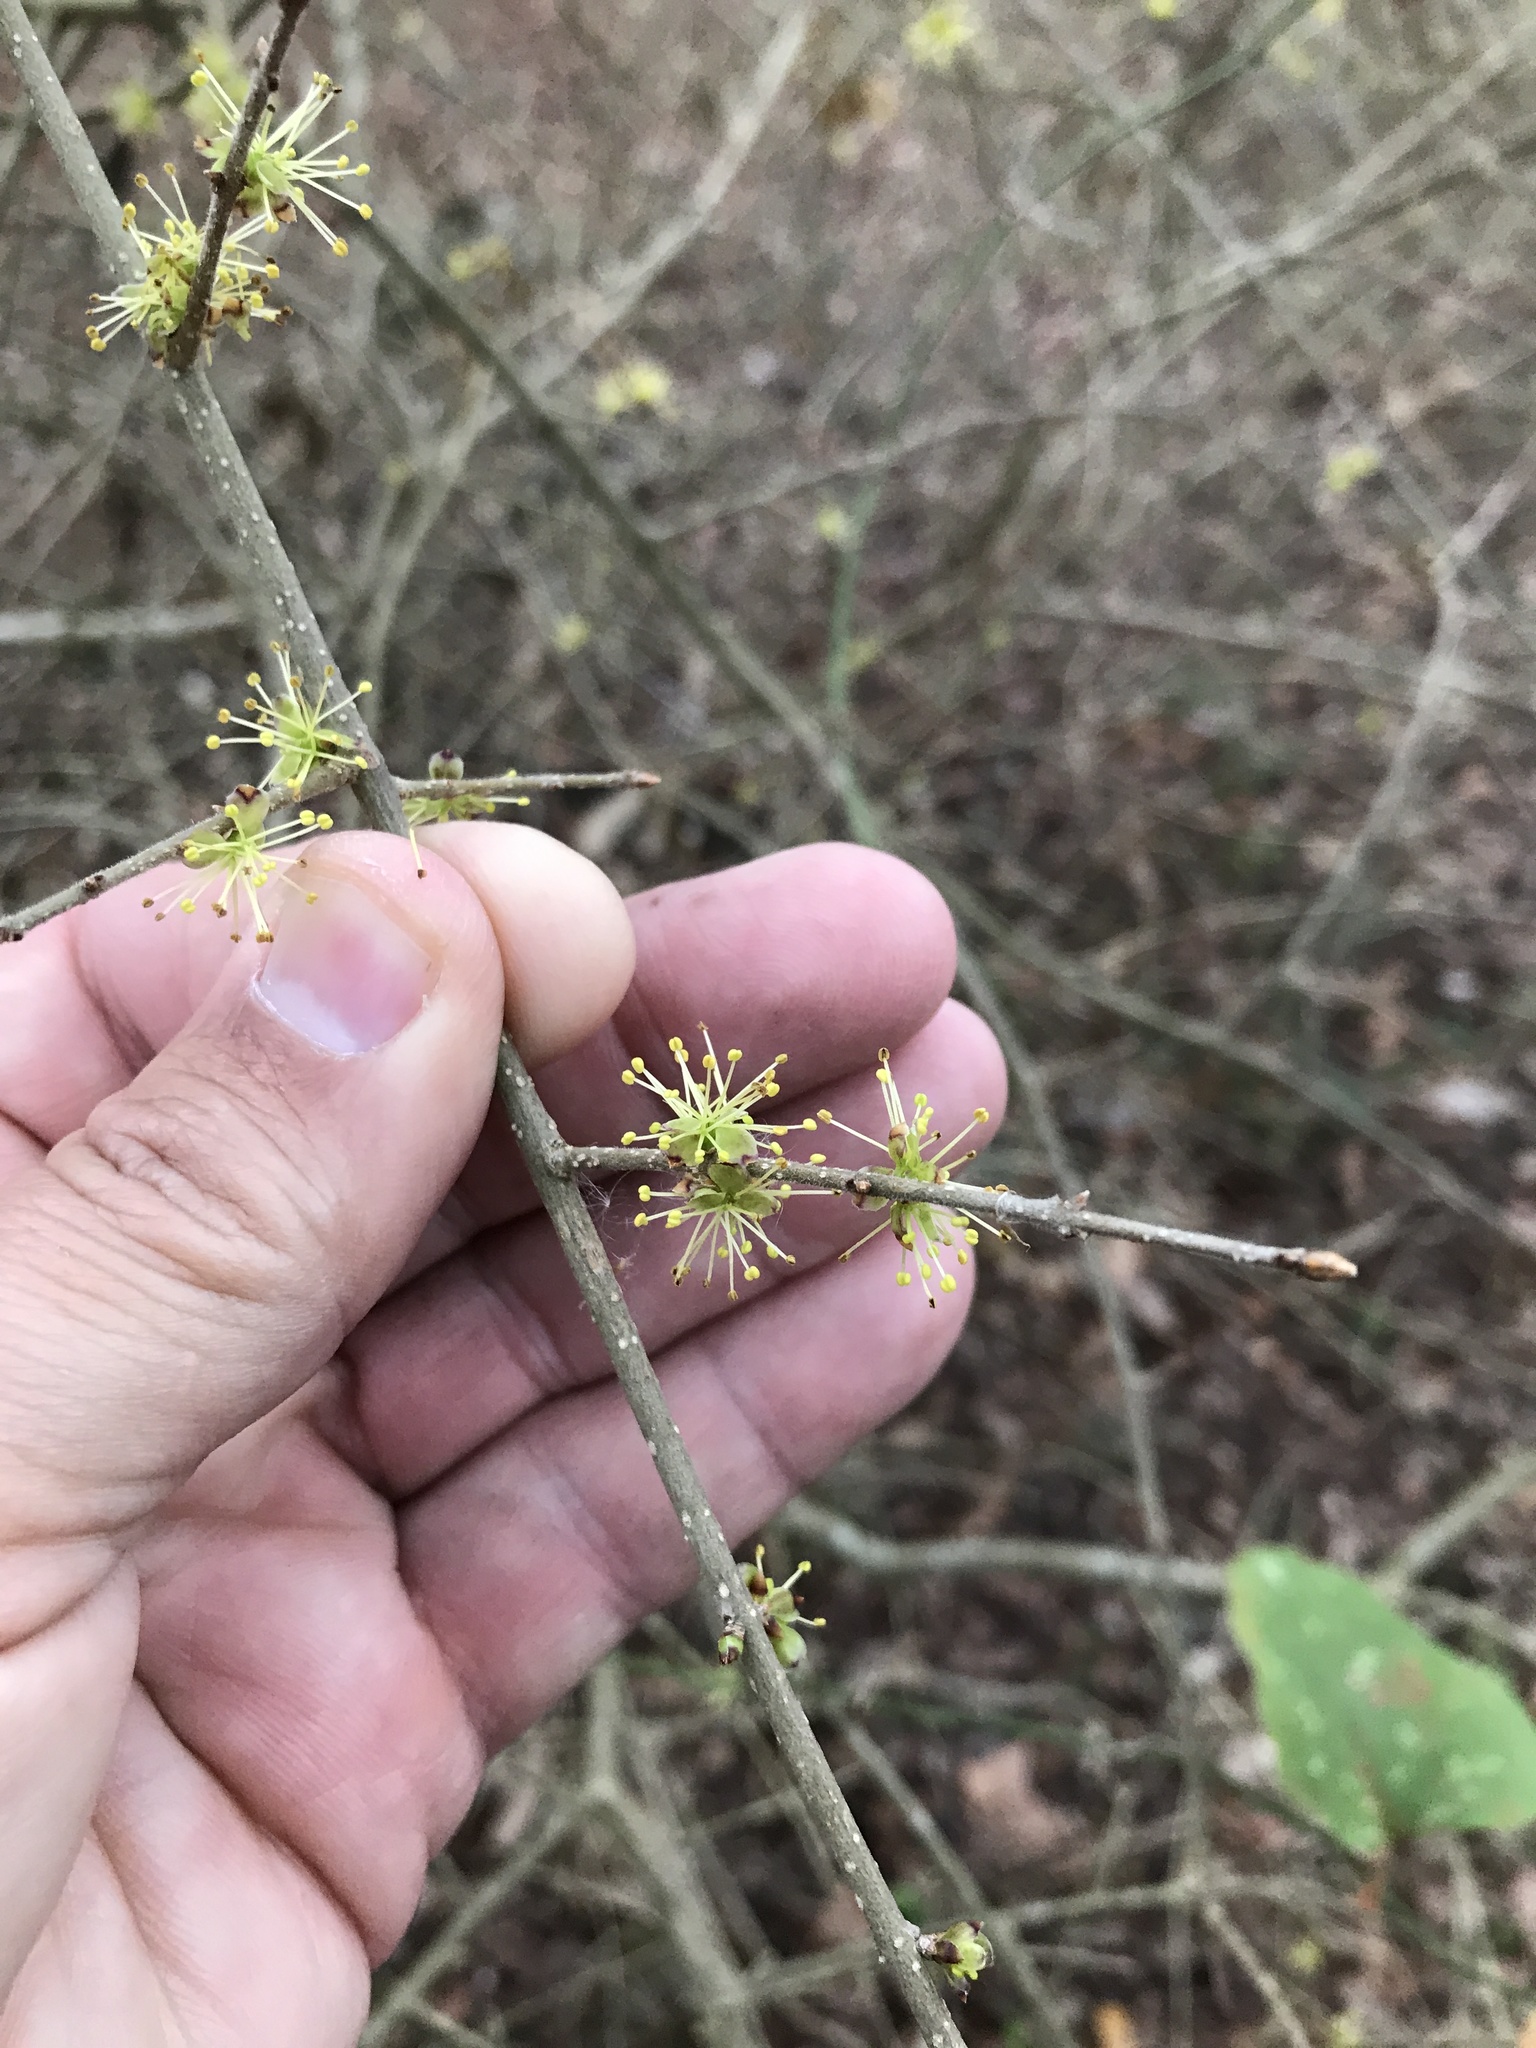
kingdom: Plantae
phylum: Tracheophyta
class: Magnoliopsida
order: Lamiales
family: Oleaceae
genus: Forestiera
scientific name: Forestiera pubescens
